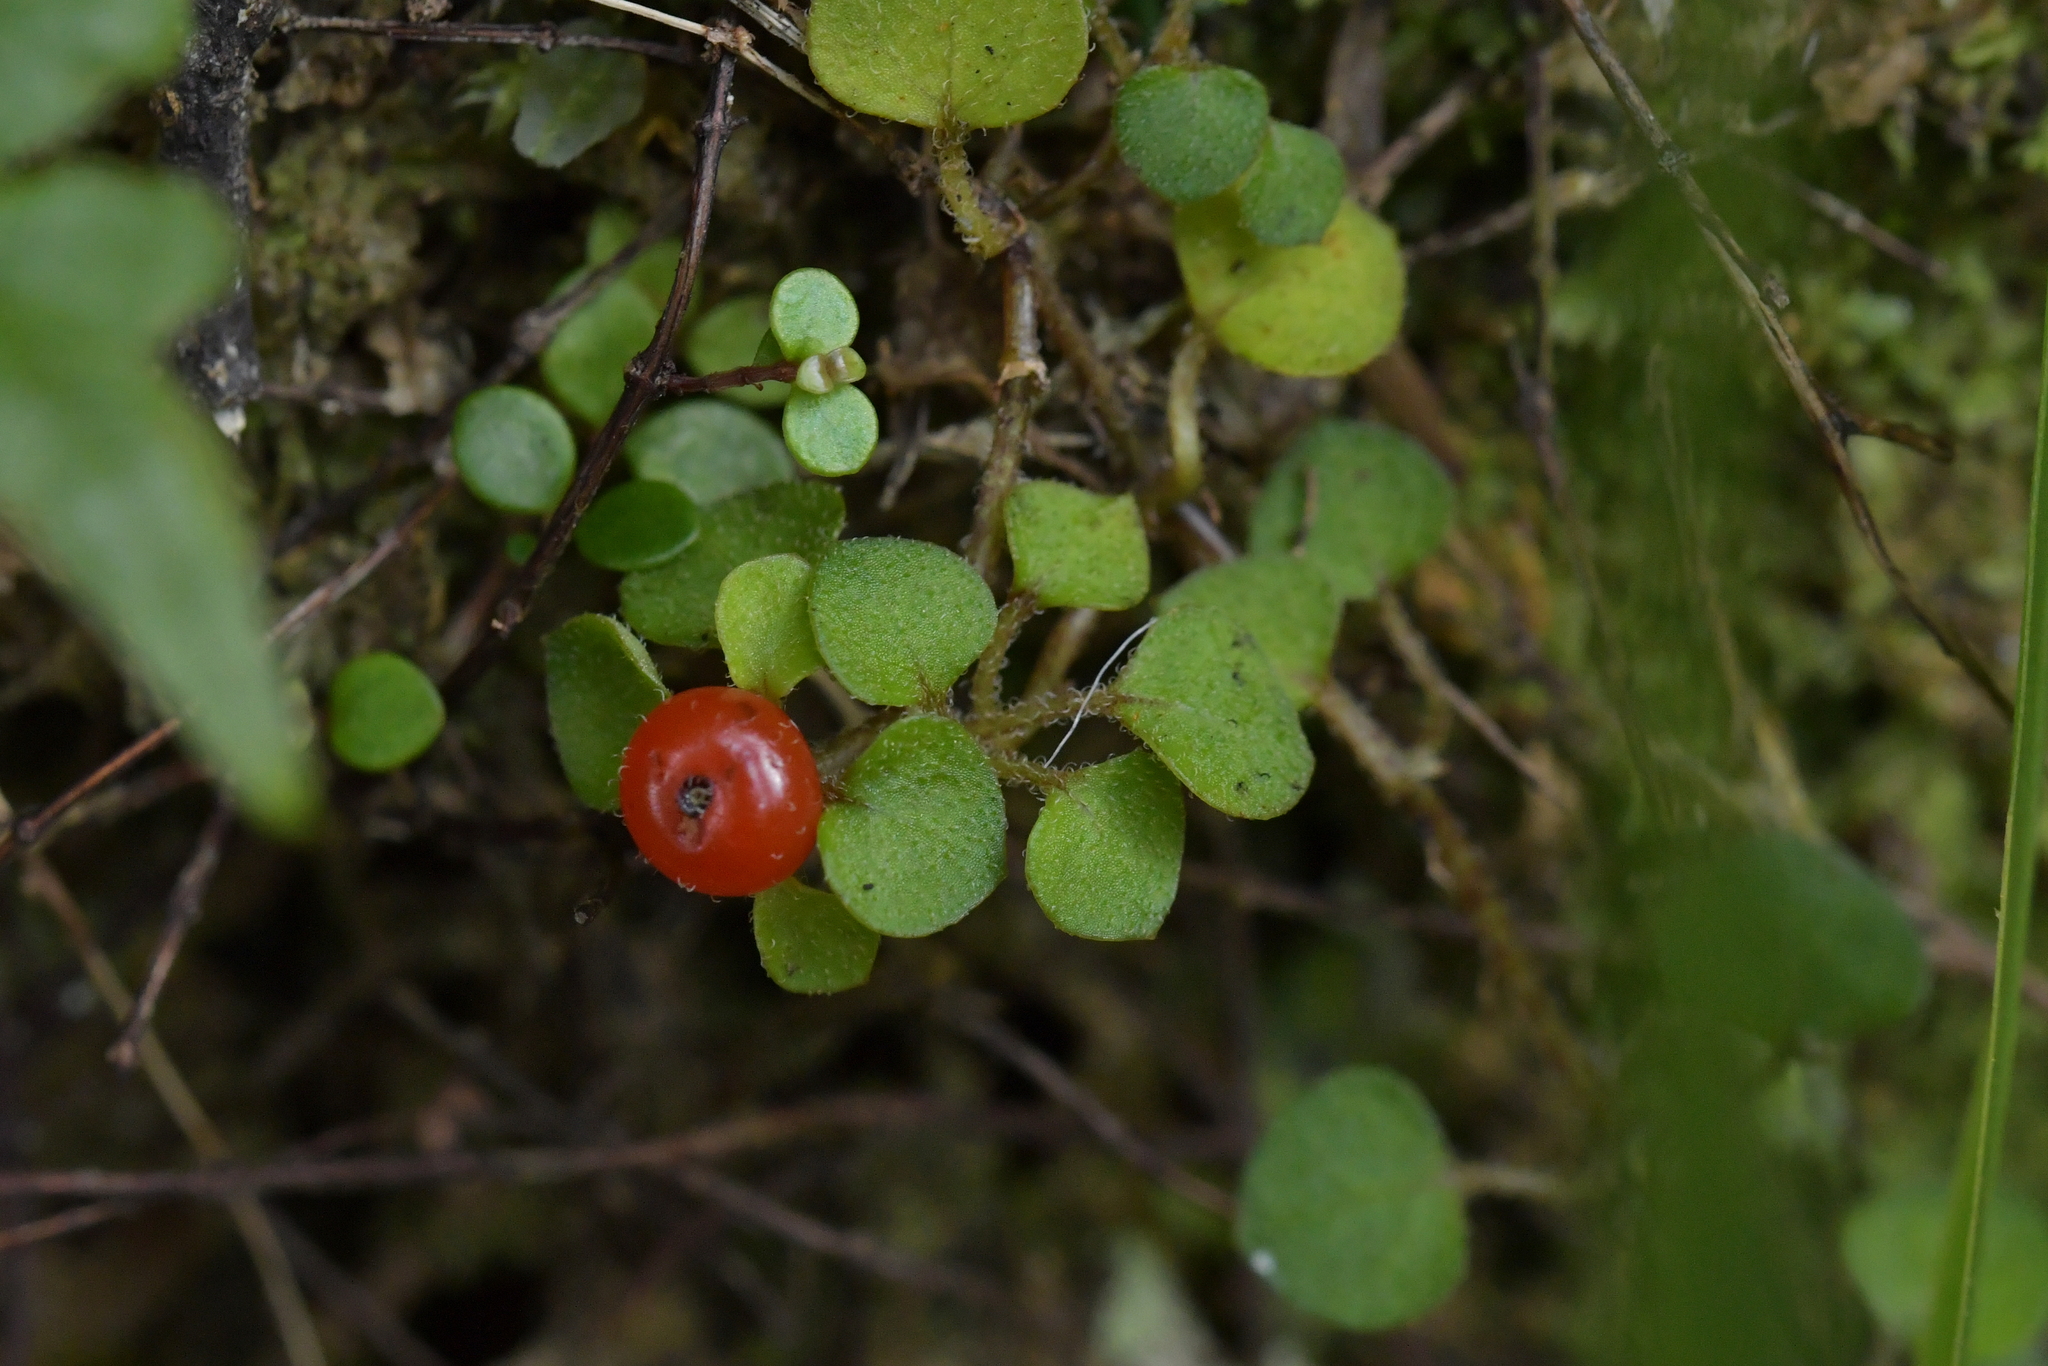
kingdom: Plantae
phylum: Tracheophyta
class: Magnoliopsida
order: Gentianales
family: Rubiaceae
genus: Nertera
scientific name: Nertera dichondrifolia
